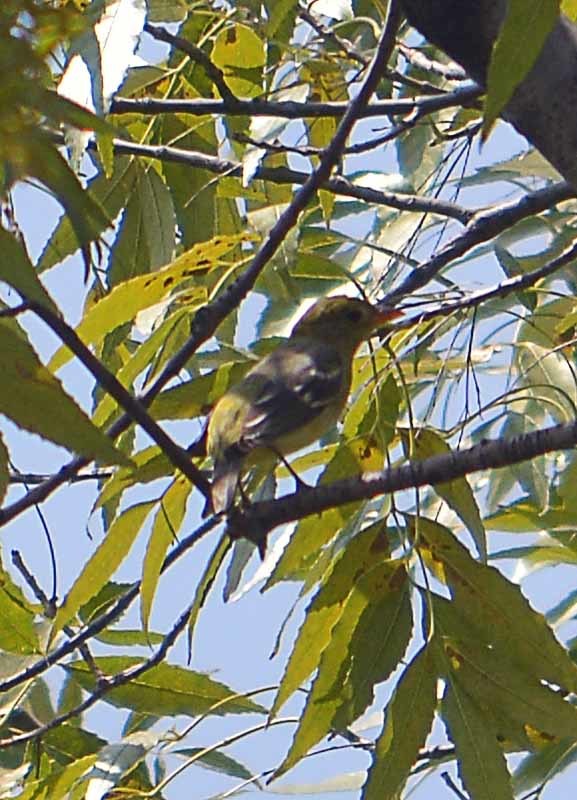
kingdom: Animalia
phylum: Chordata
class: Aves
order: Passeriformes
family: Cardinalidae
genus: Piranga
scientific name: Piranga ludoviciana
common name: Western tanager
